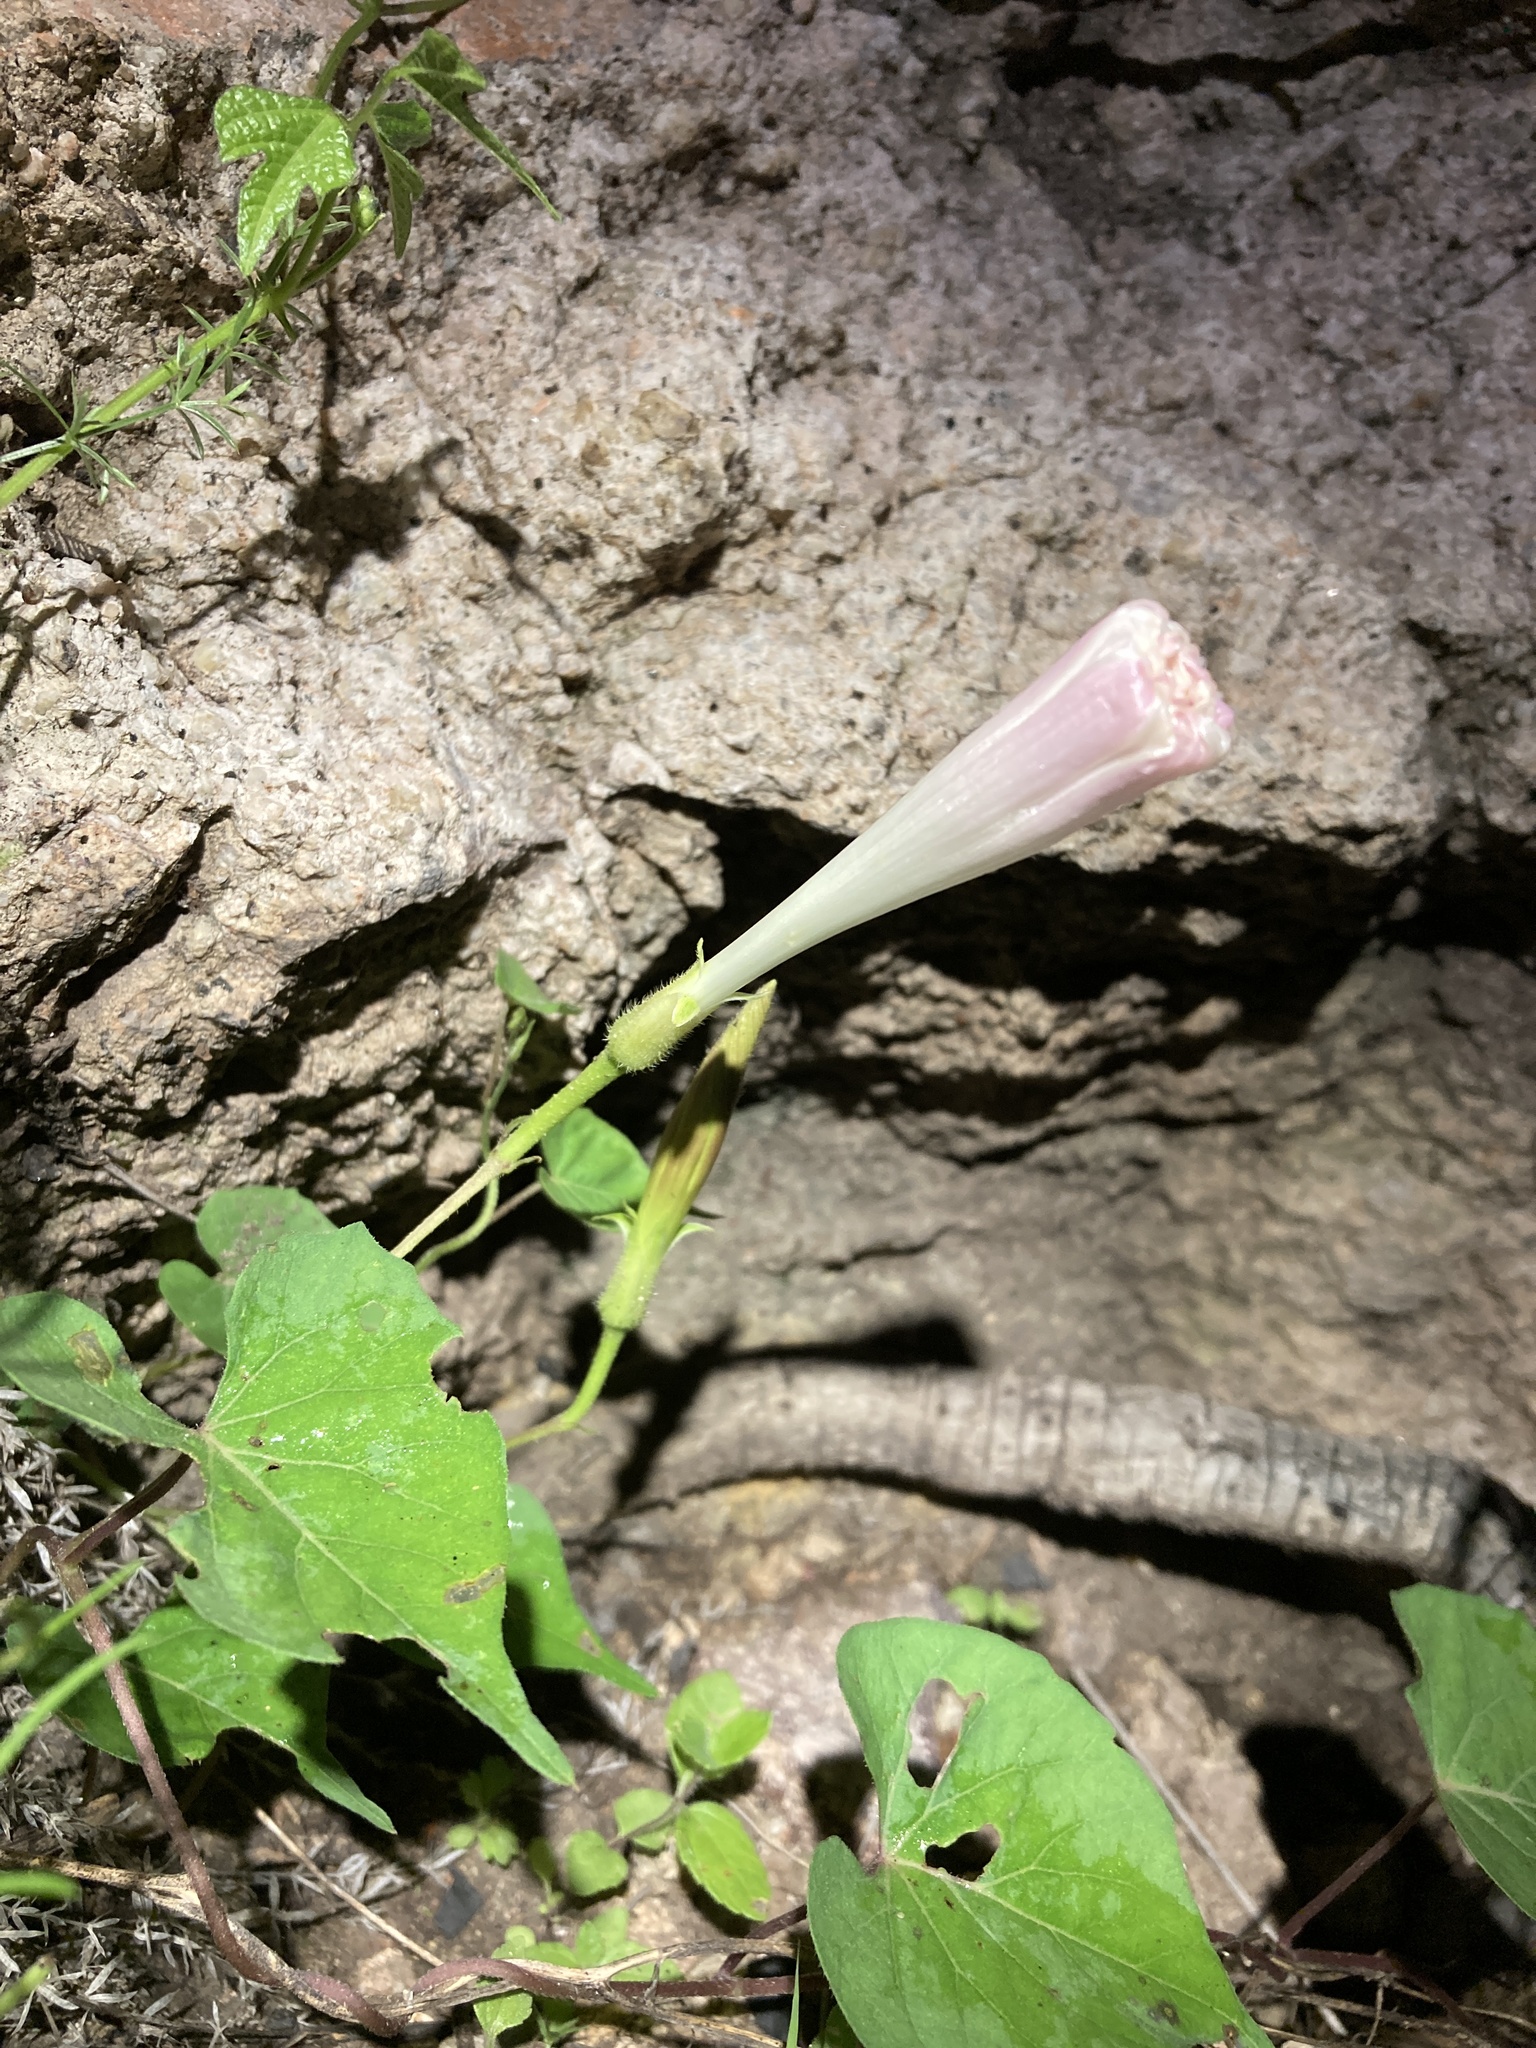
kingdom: Plantae
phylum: Tracheophyta
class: Magnoliopsida
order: Solanales
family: Convolvulaceae
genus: Ipomoea
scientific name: Ipomoea gilana
